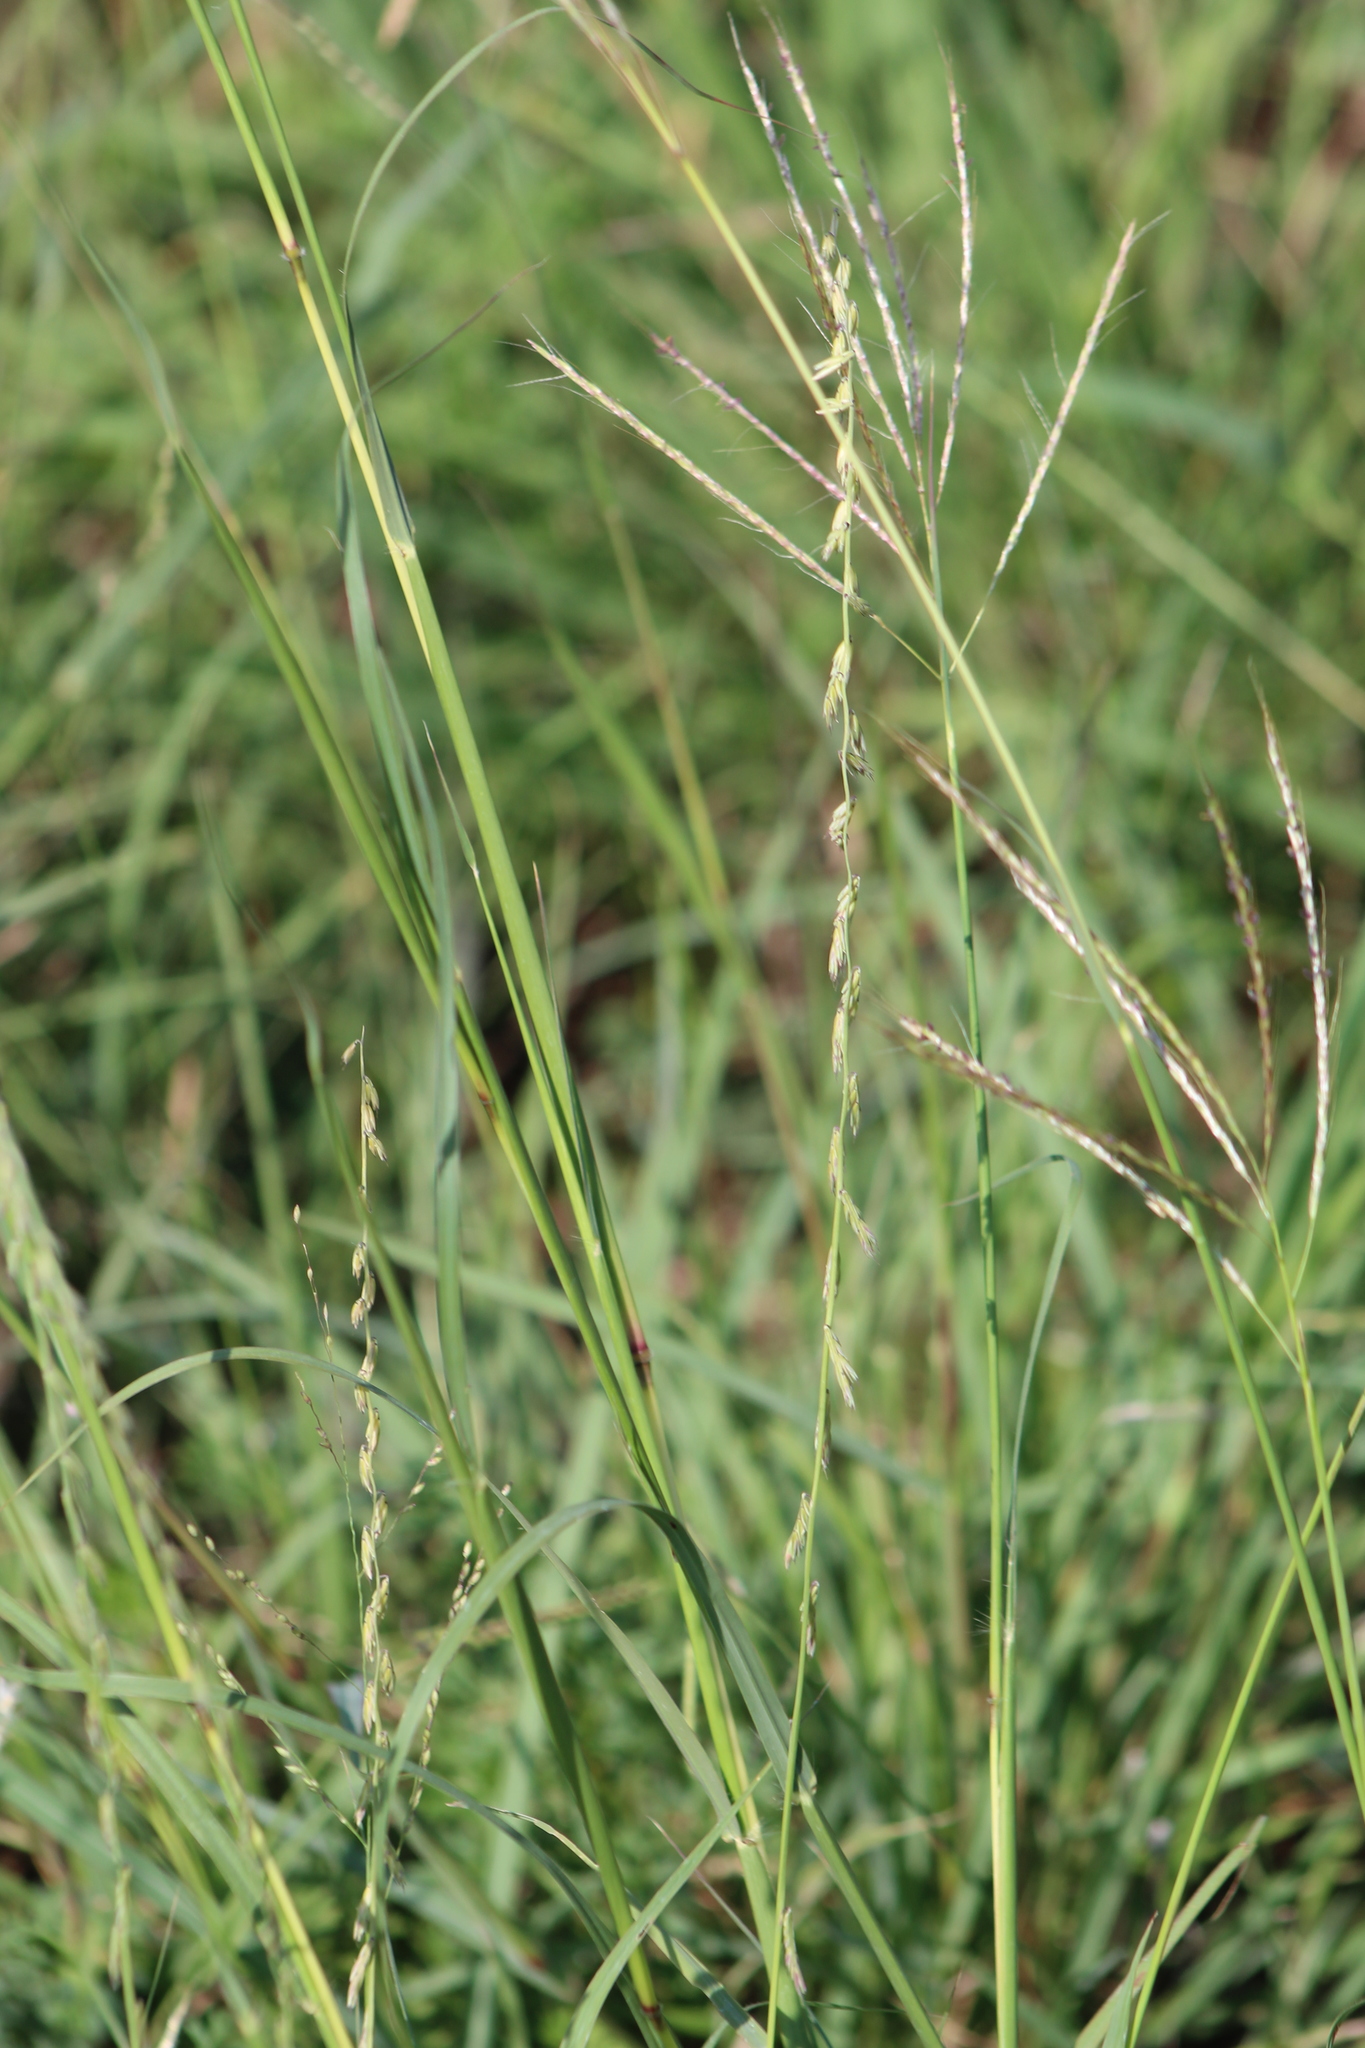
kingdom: Plantae
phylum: Tracheophyta
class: Liliopsida
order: Poales
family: Poaceae
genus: Bouteloua
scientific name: Bouteloua curtipendula
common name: Side-oats grama
